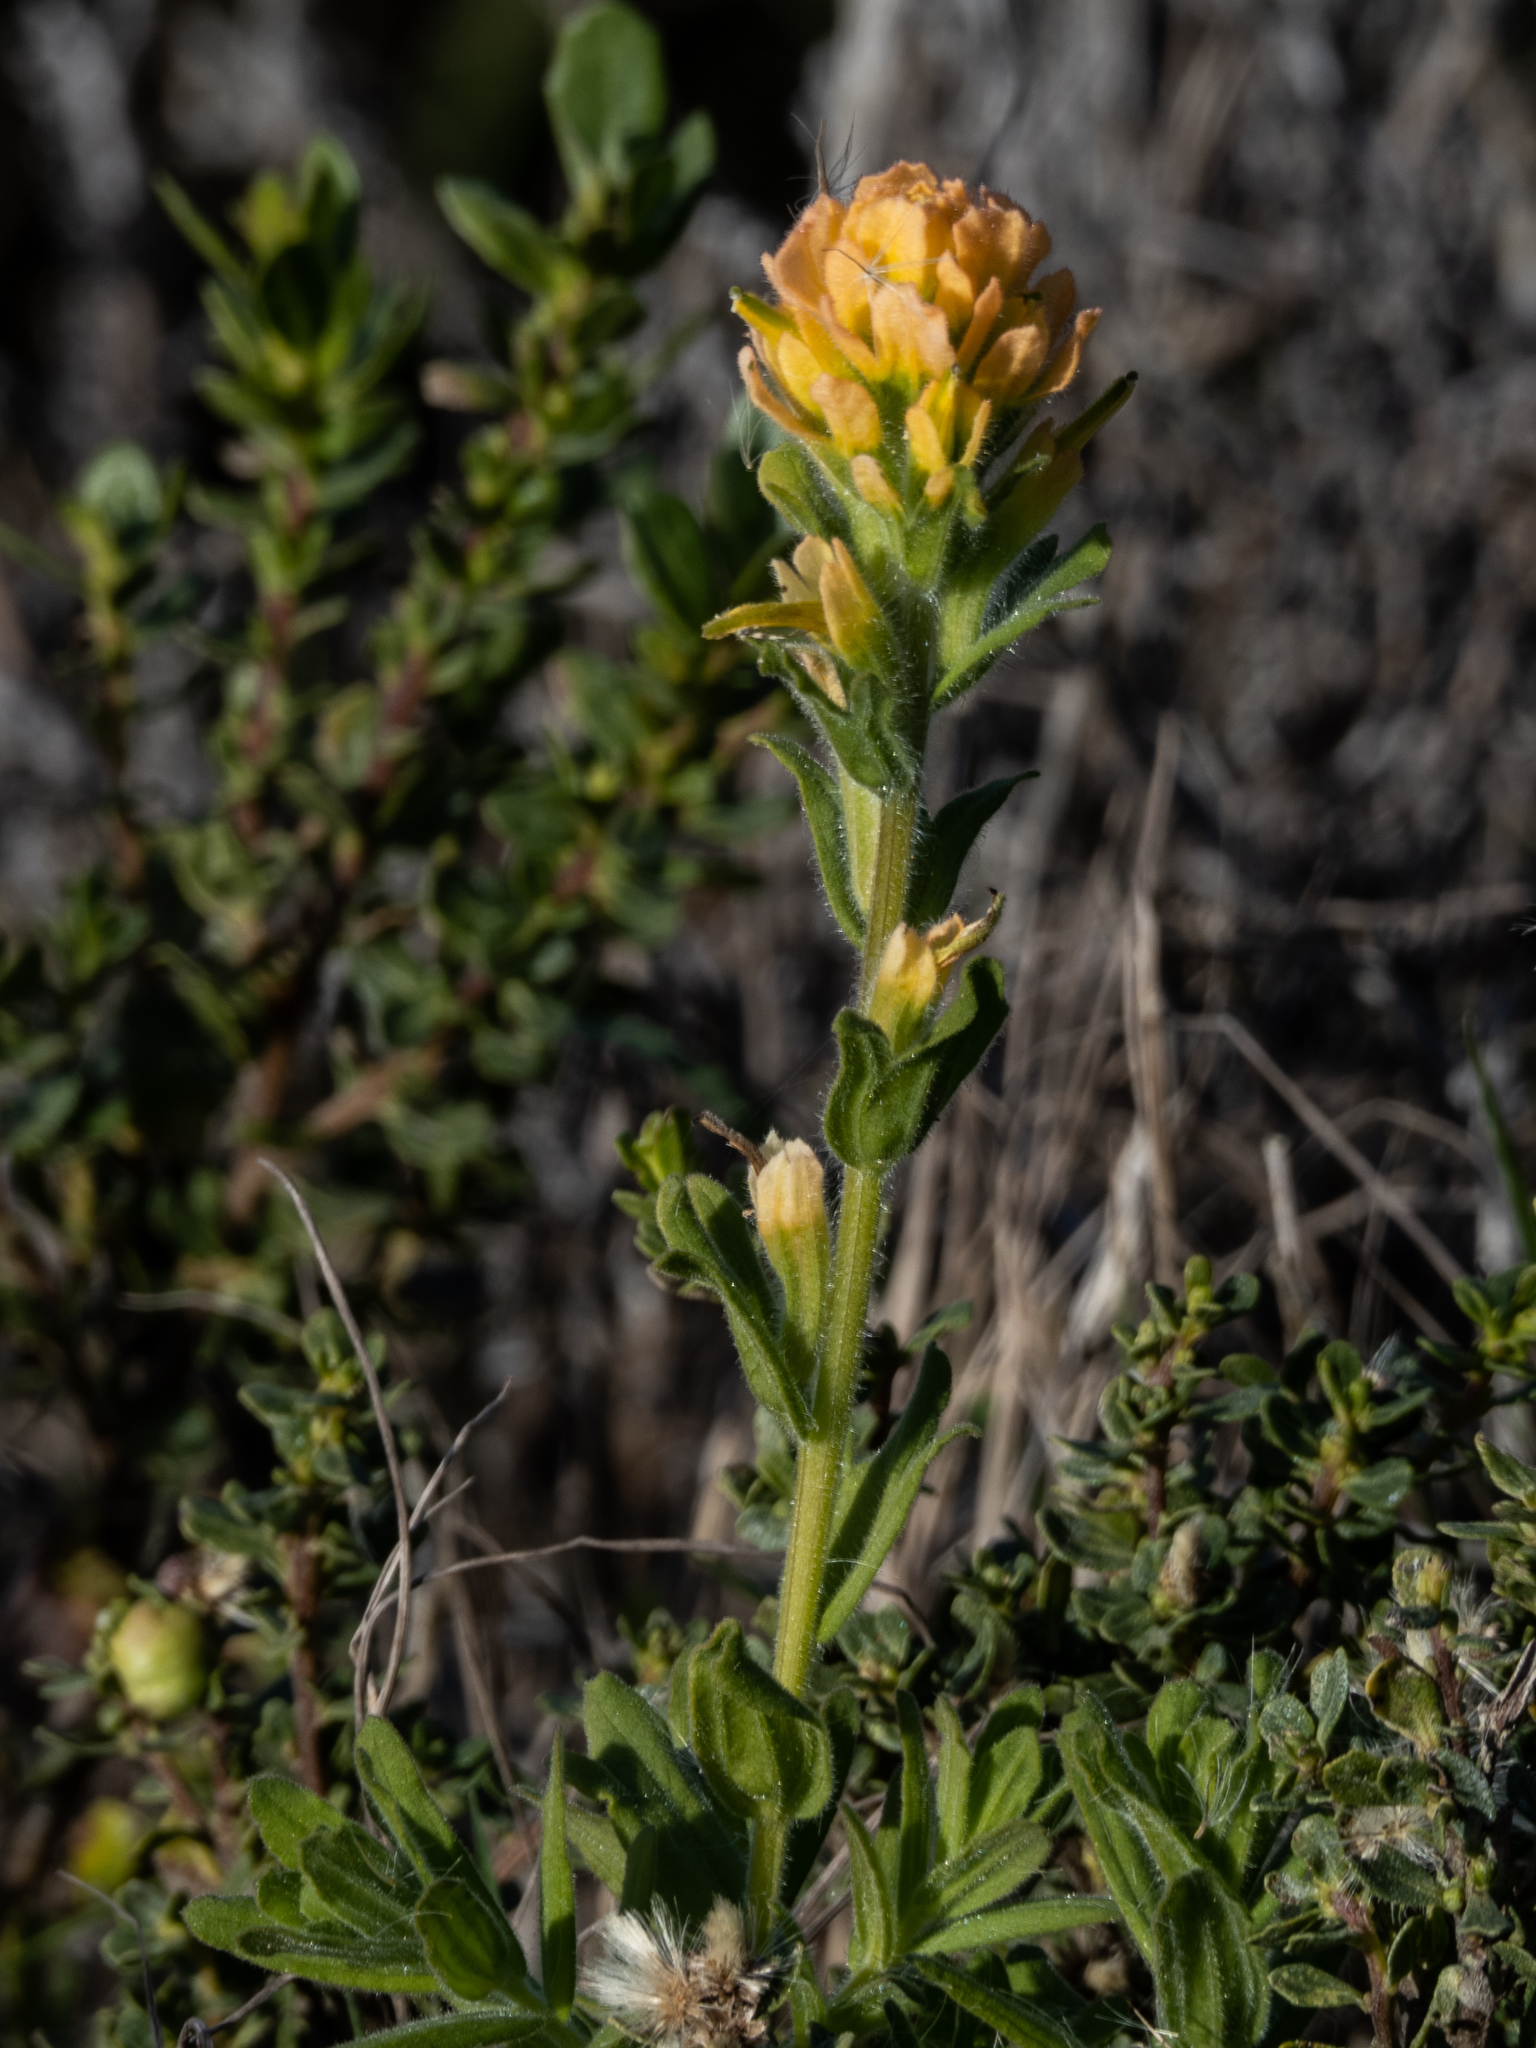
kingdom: Plantae
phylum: Tracheophyta
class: Magnoliopsida
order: Lamiales
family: Orobanchaceae
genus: Castilleja
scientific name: Castilleja wightii
